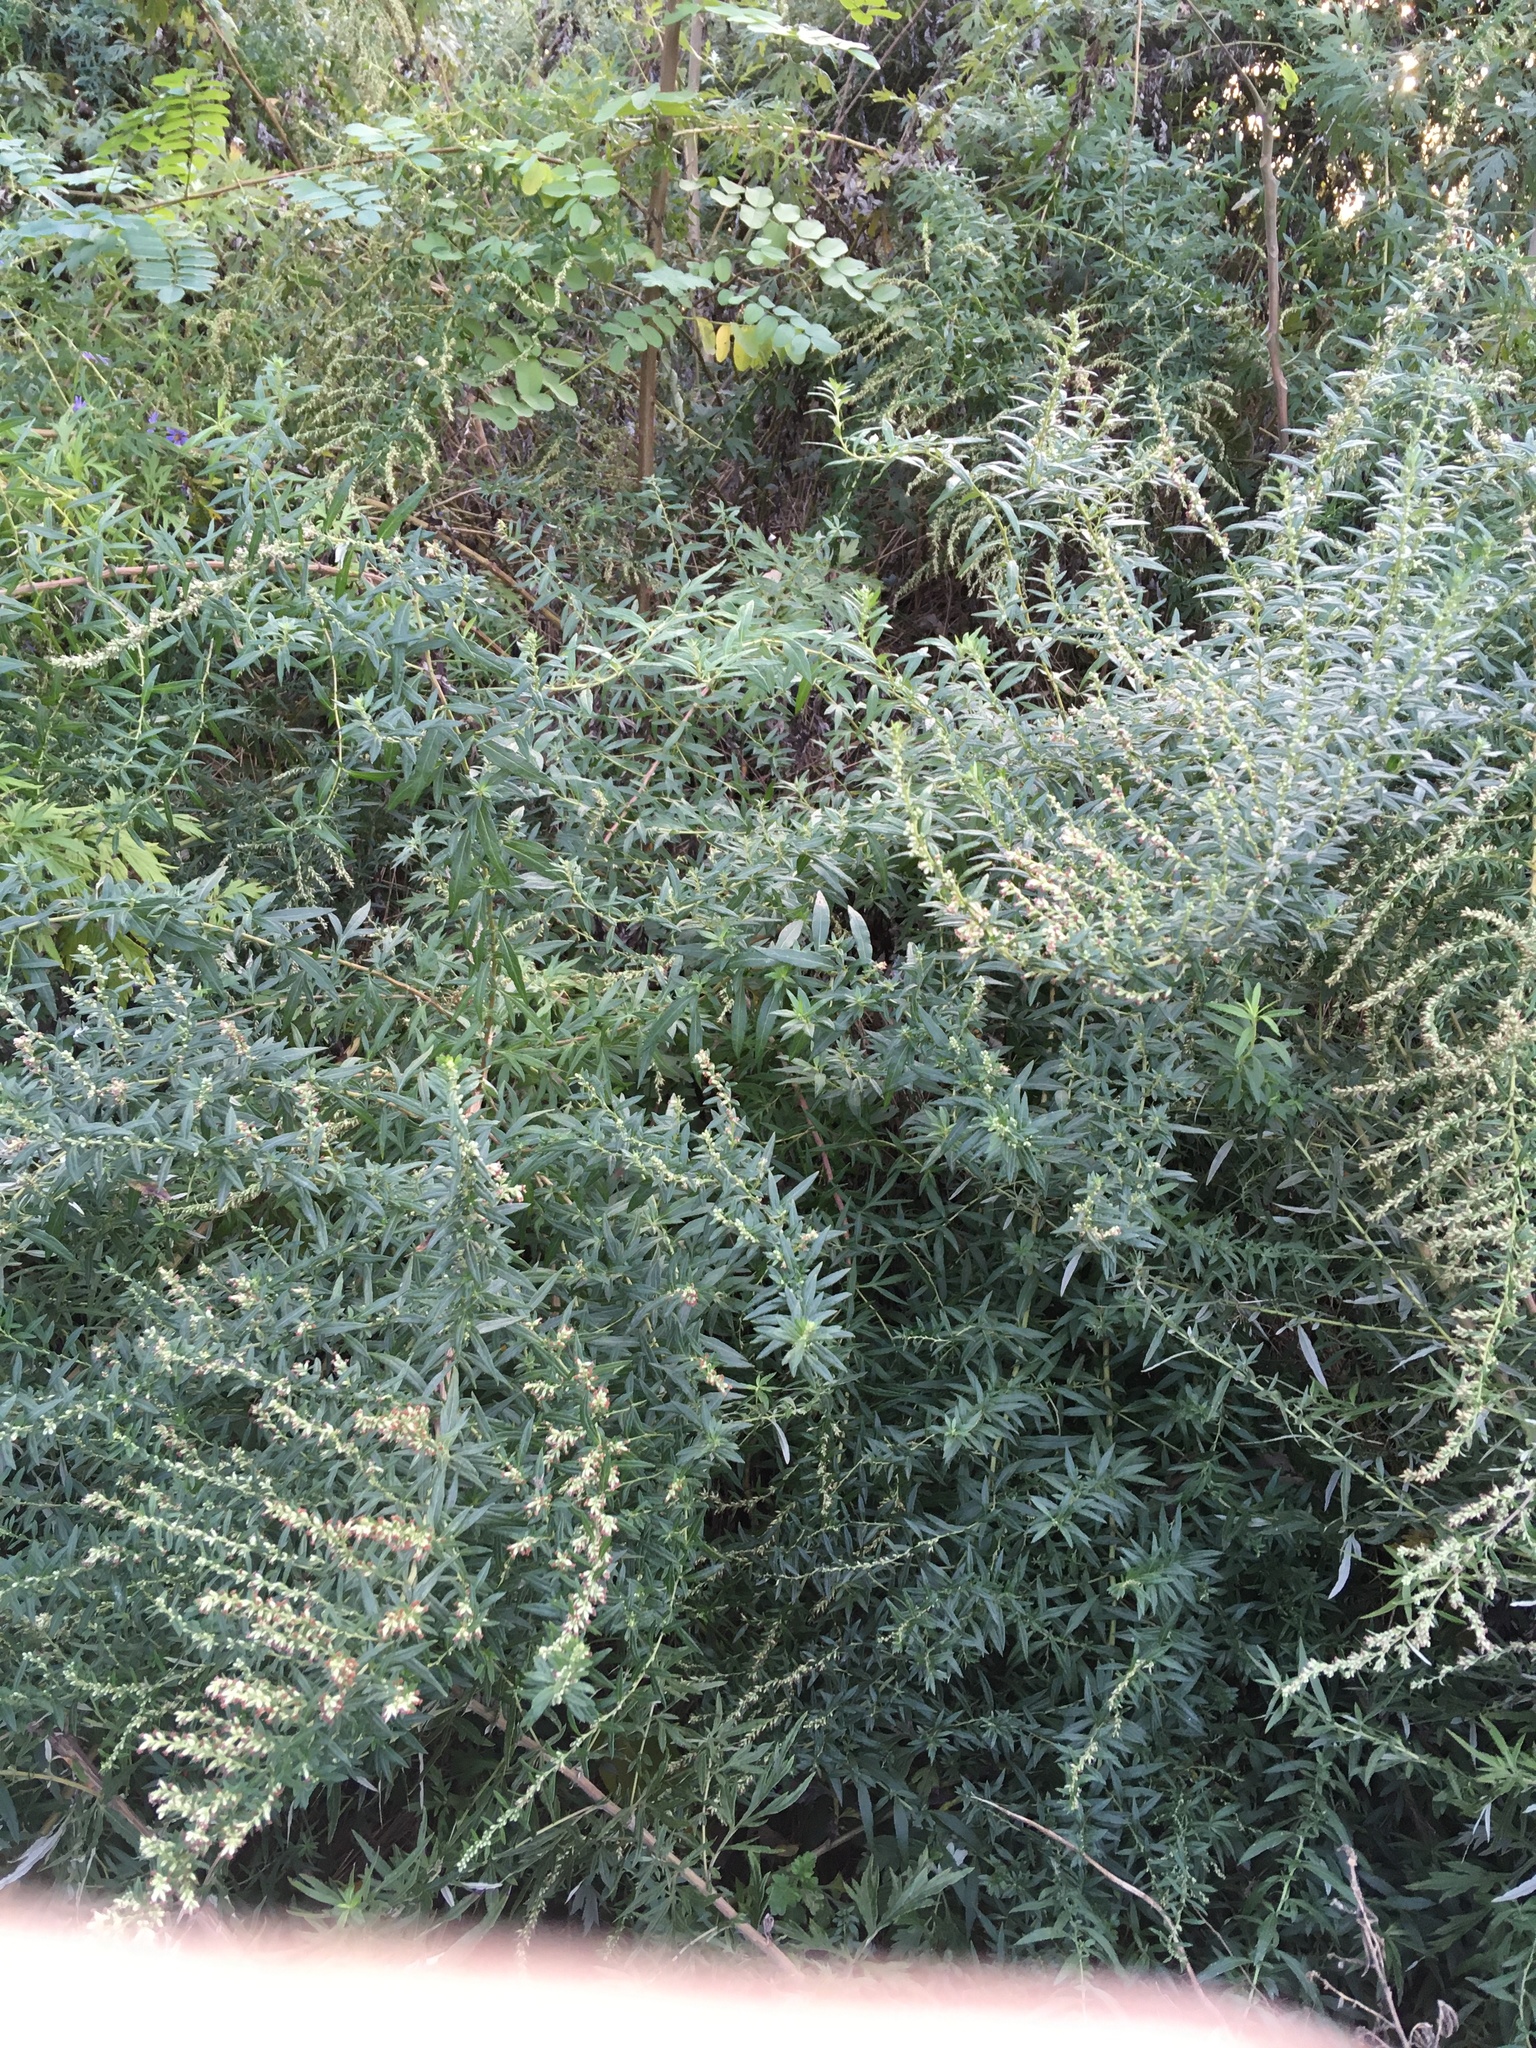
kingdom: Plantae
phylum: Tracheophyta
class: Magnoliopsida
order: Asterales
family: Asteraceae
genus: Artemisia
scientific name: Artemisia vulgaris
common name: Mugwort
